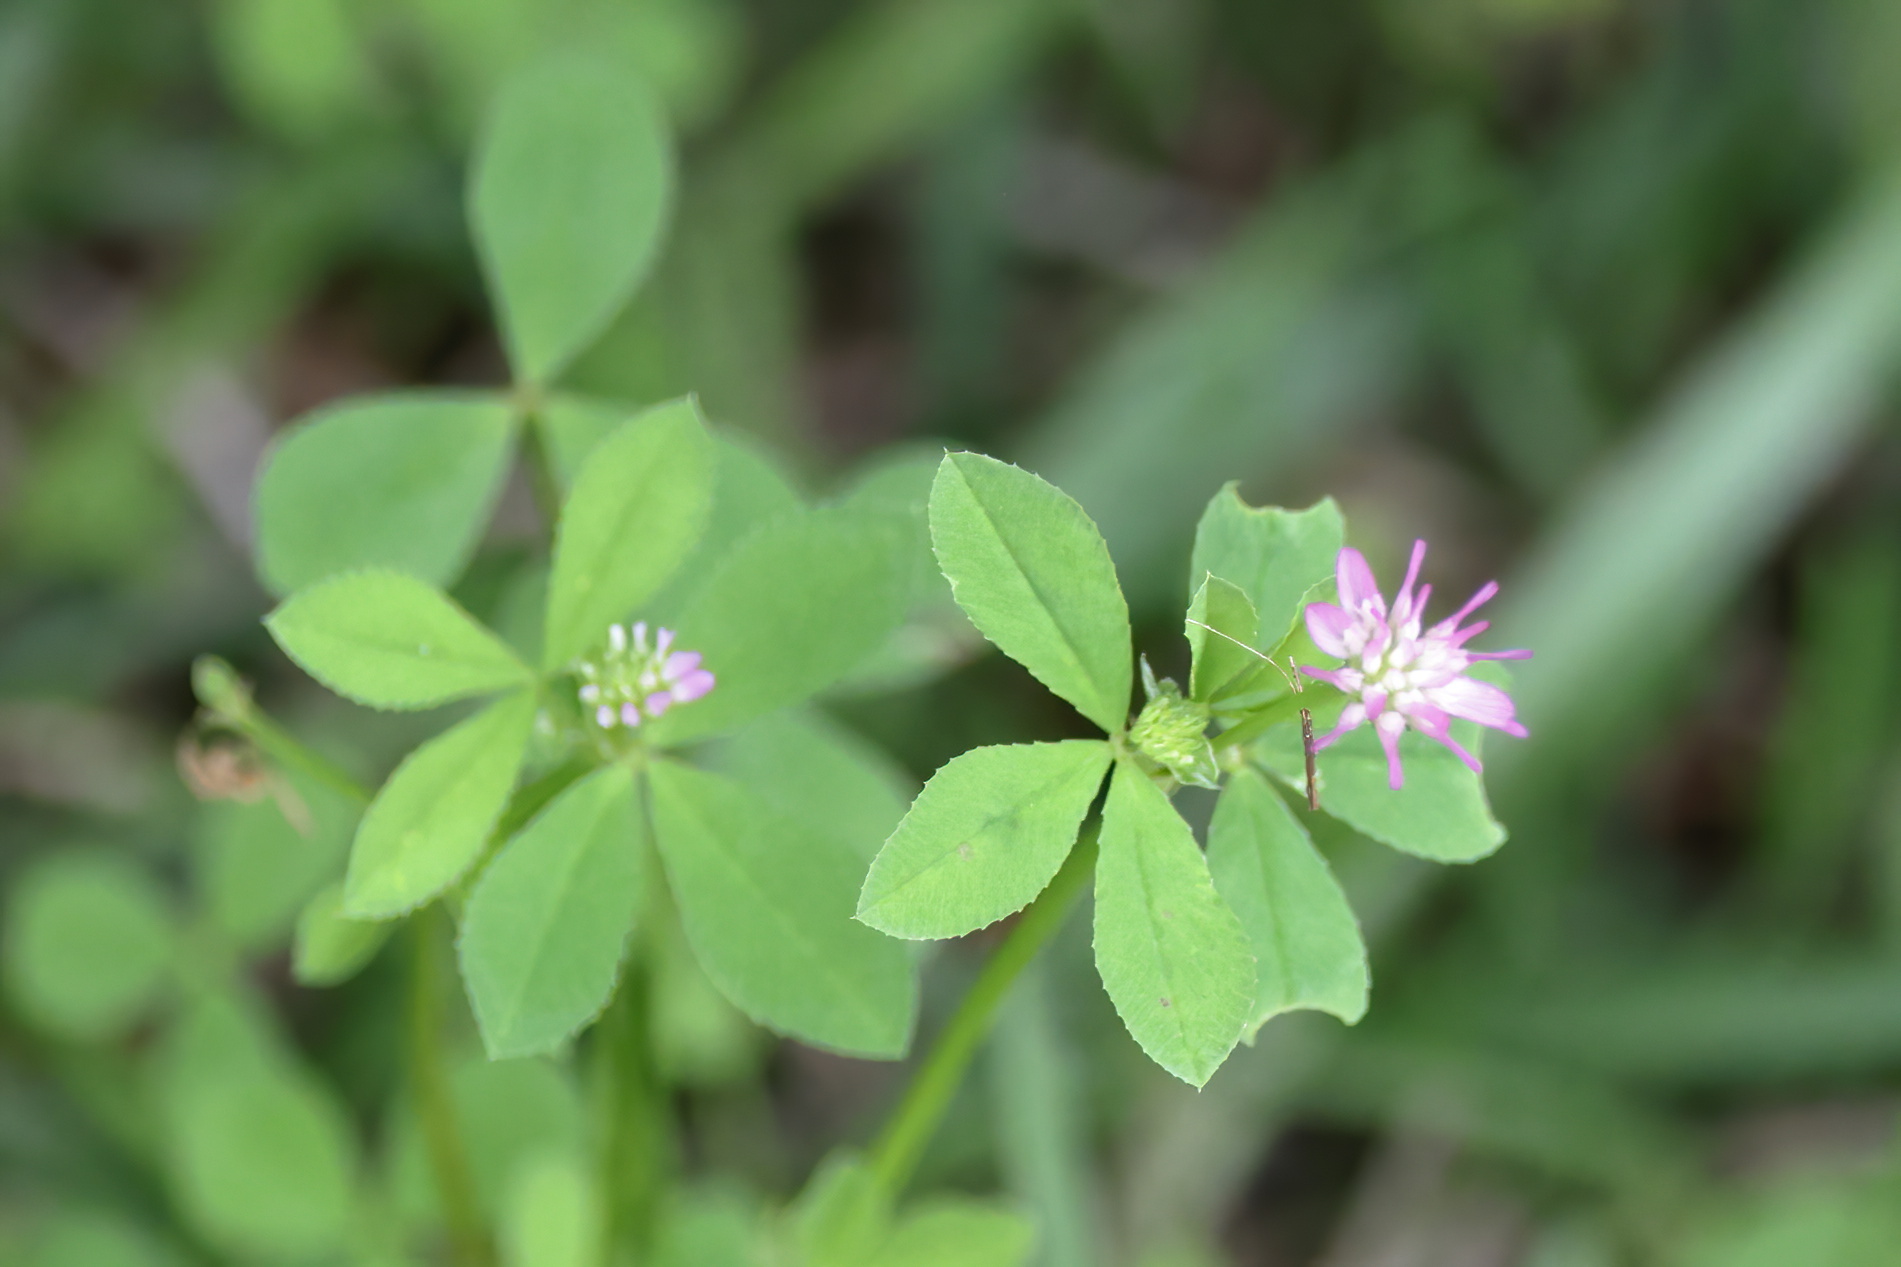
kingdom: Plantae
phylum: Tracheophyta
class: Magnoliopsida
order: Fabales
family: Fabaceae
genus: Trifolium
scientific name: Trifolium resupinatum
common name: Reversed clover
